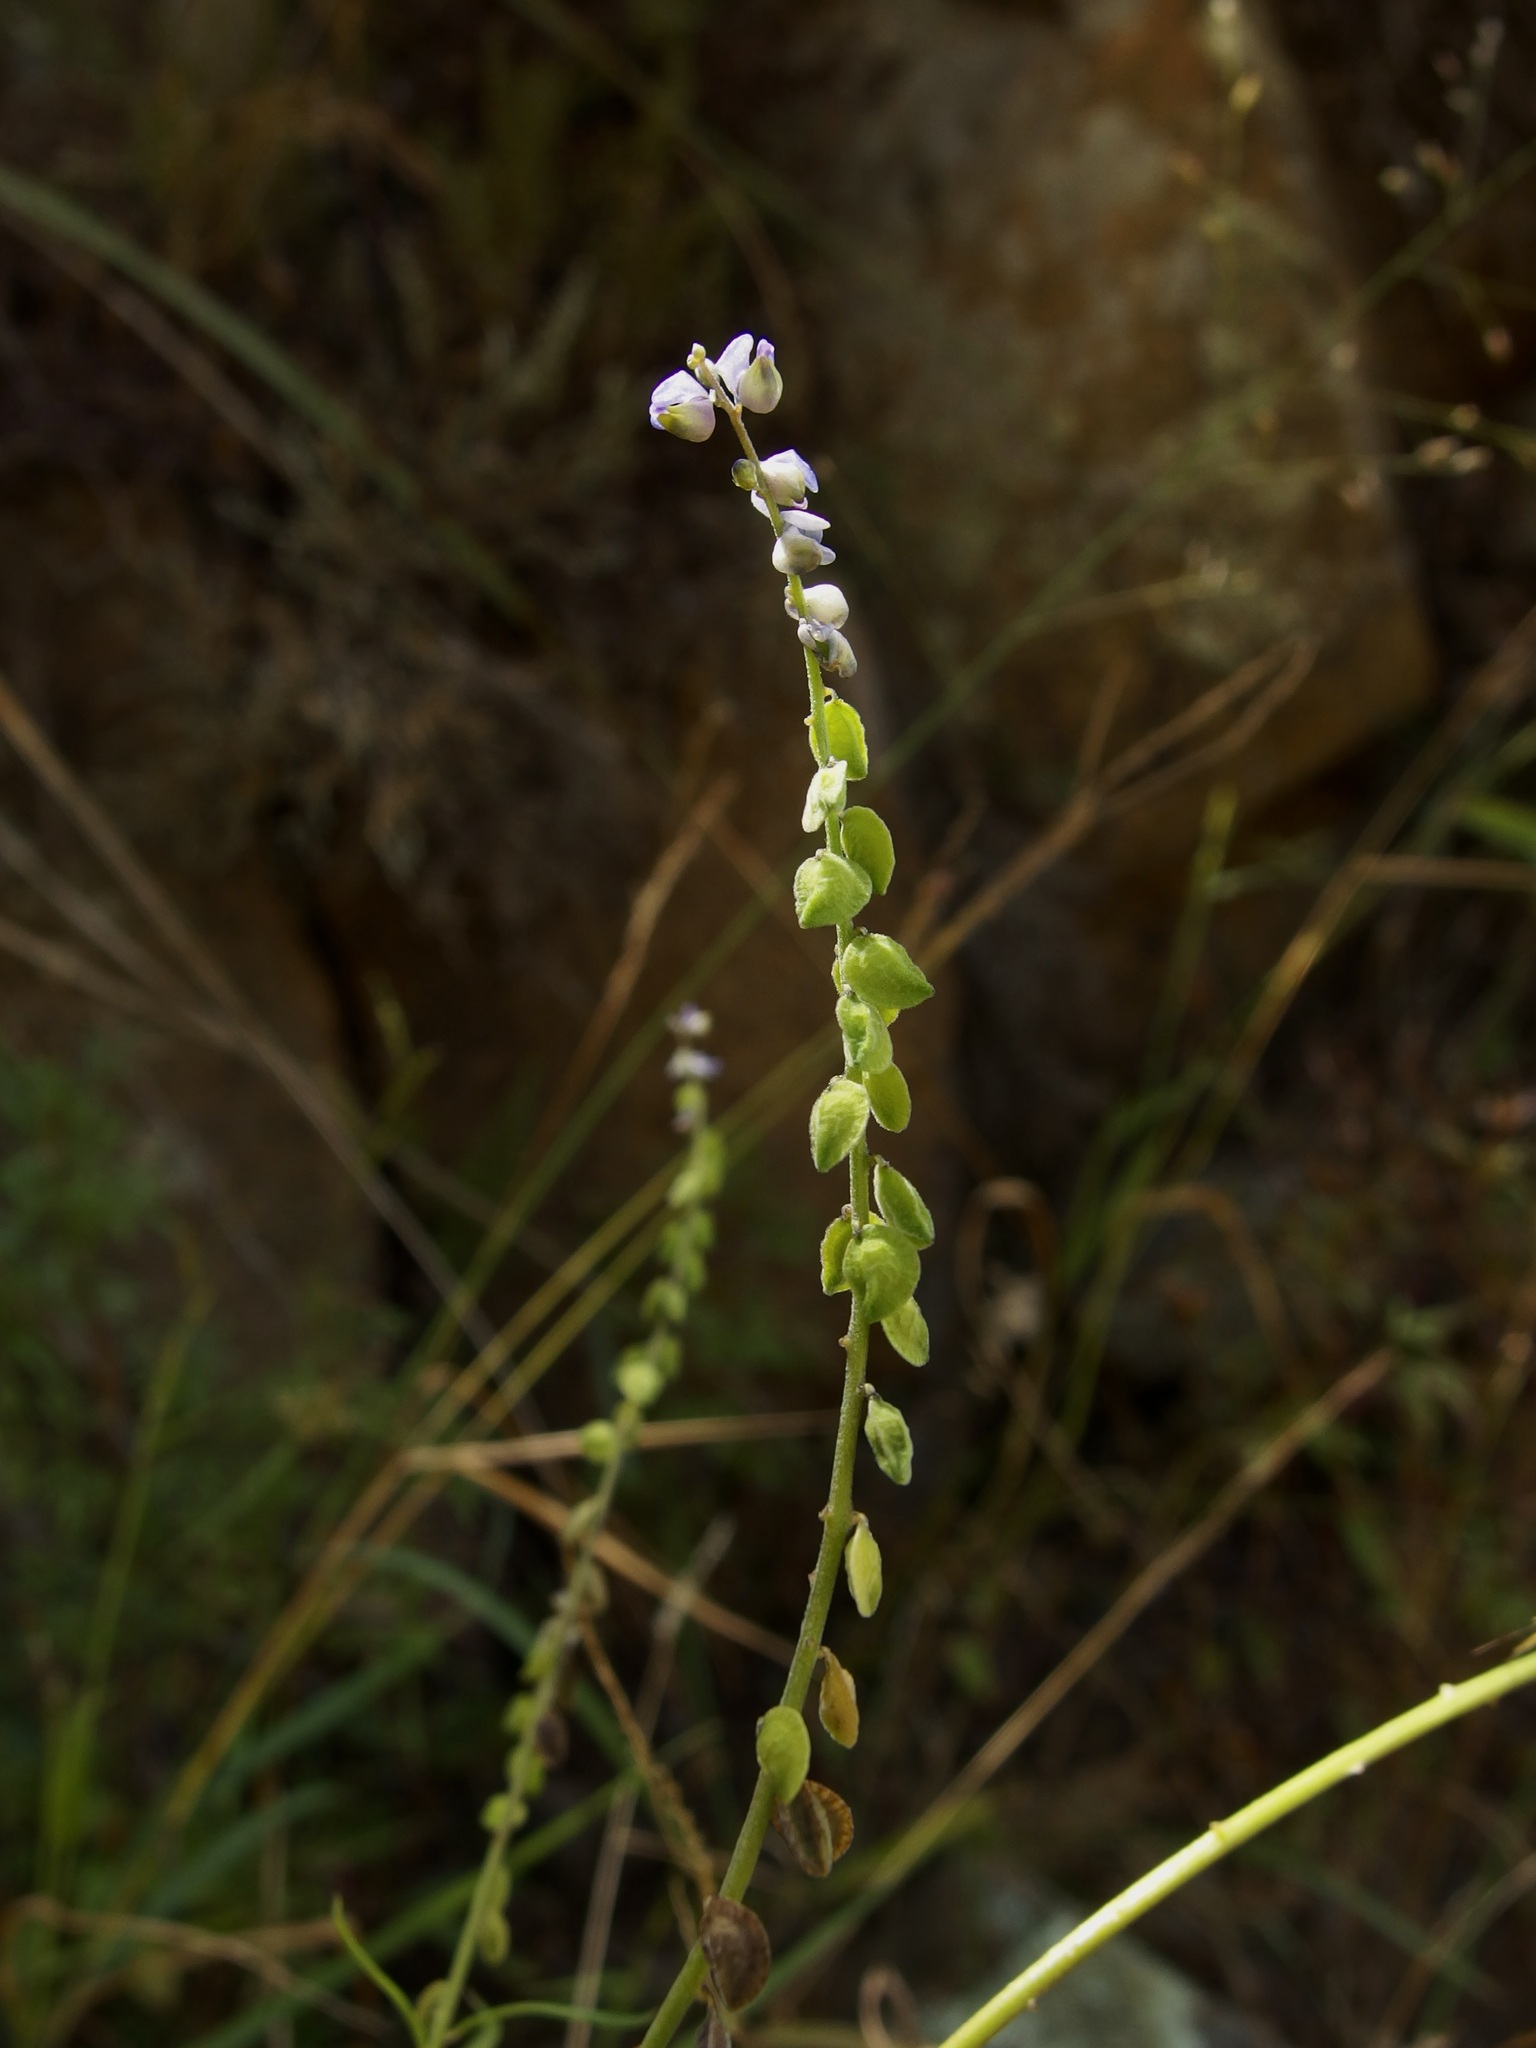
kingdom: Plantae
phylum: Tracheophyta
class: Magnoliopsida
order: Fabales
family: Polygalaceae
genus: Monnina
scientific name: Monnina wrightii
